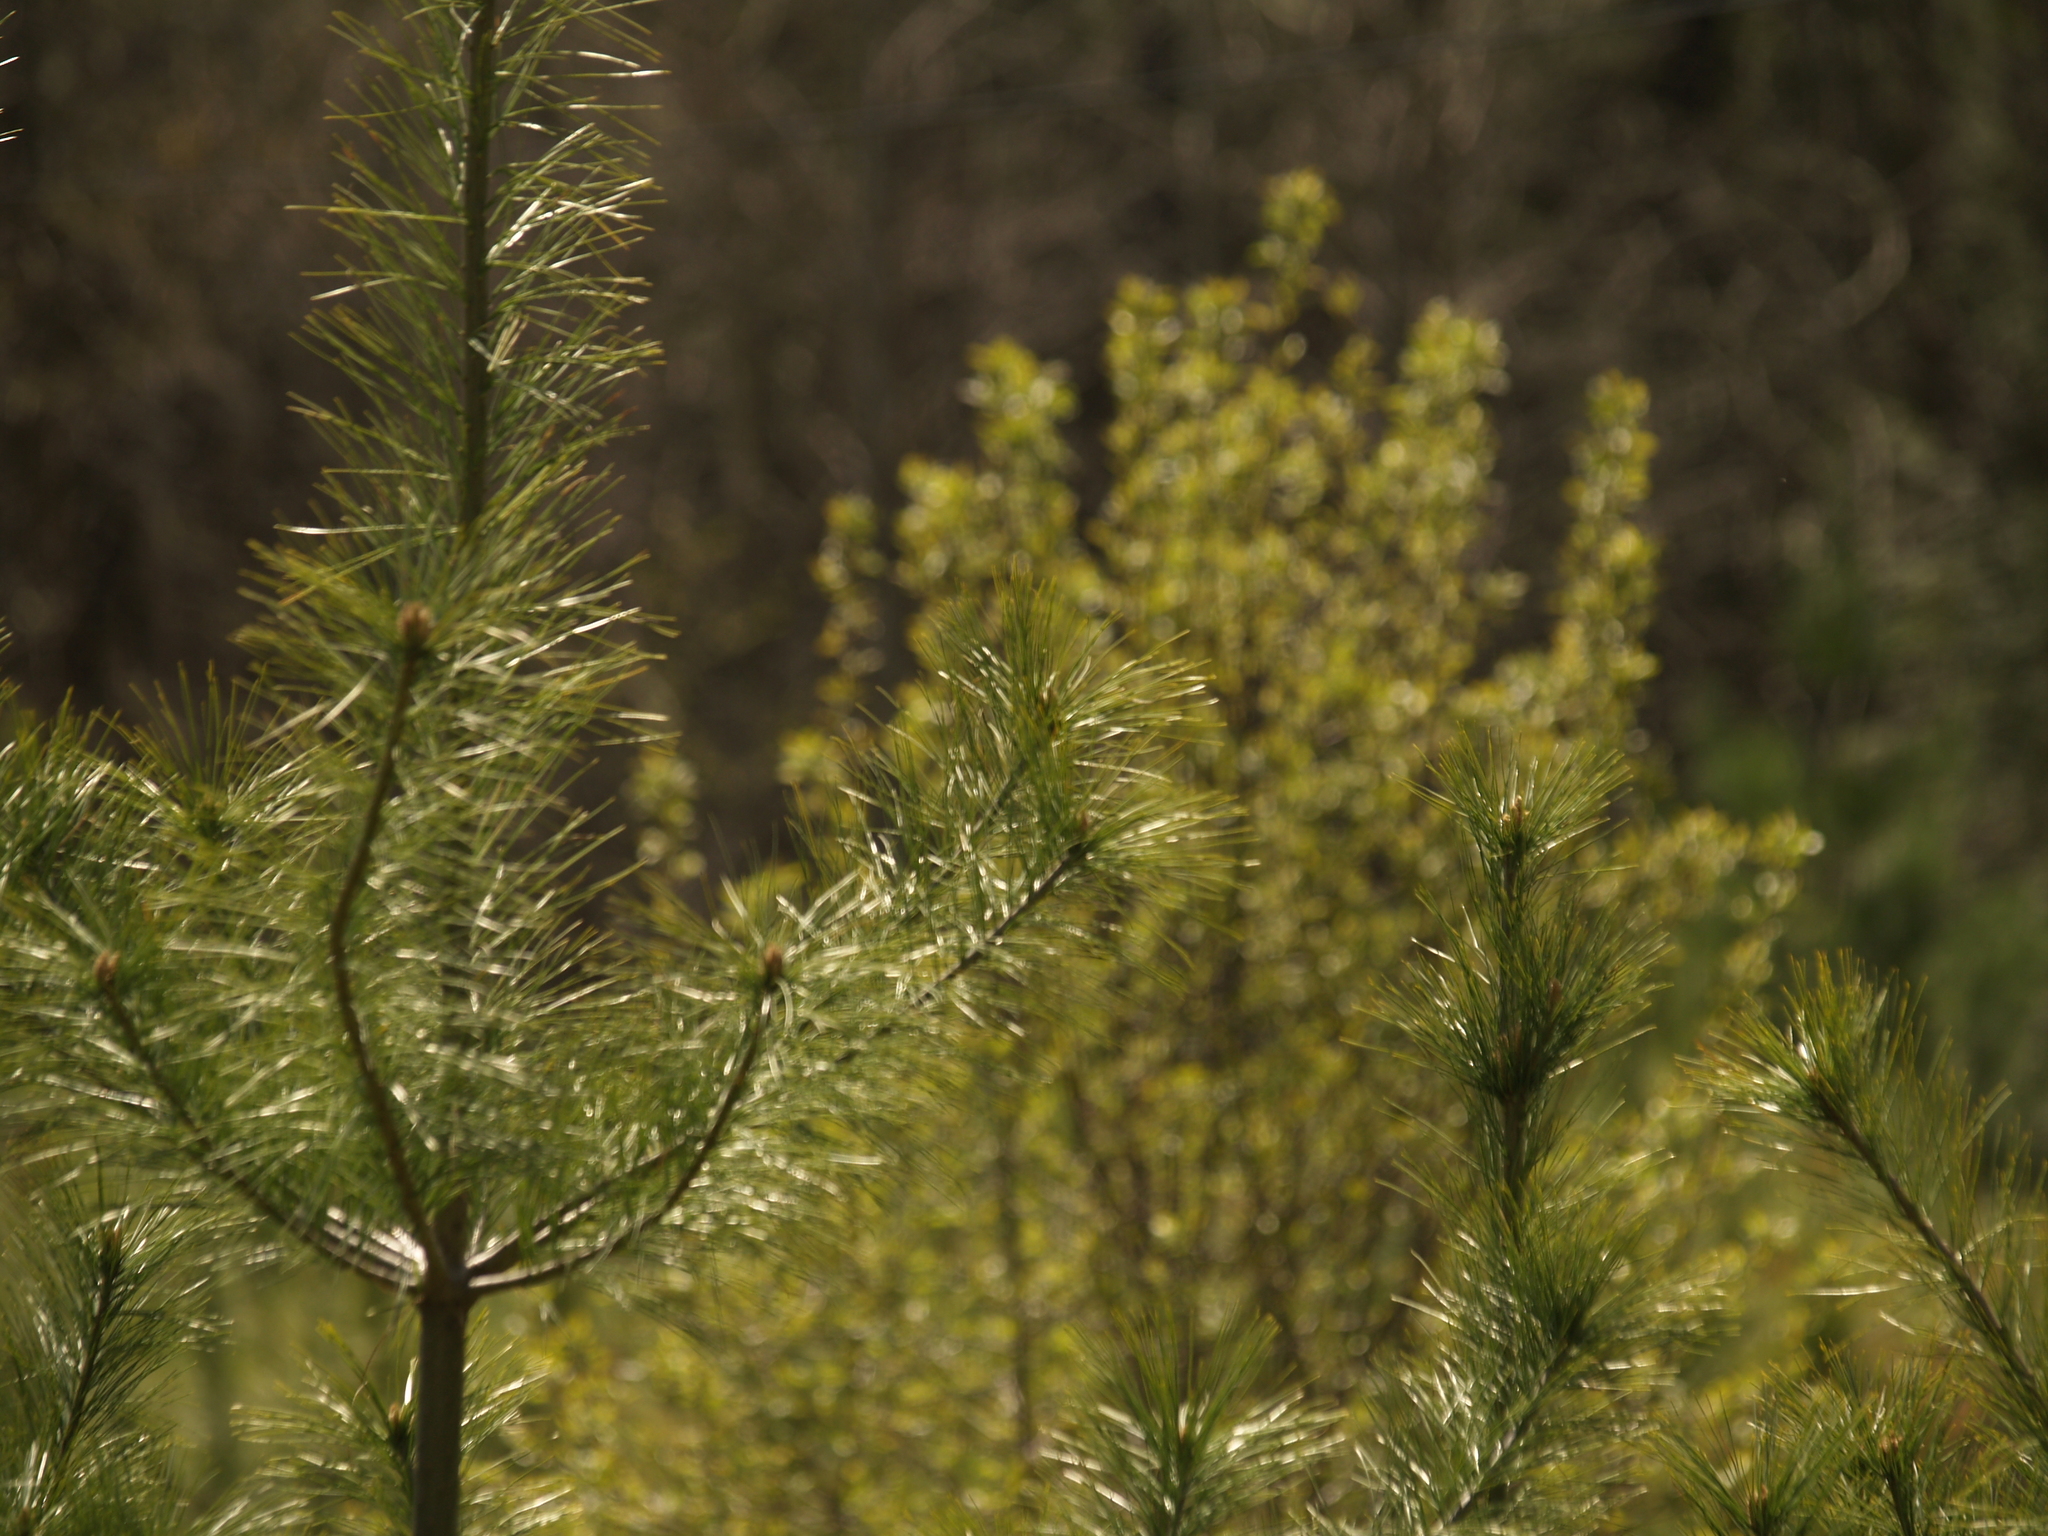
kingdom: Plantae
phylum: Tracheophyta
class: Pinopsida
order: Pinales
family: Pinaceae
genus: Pinus
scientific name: Pinus strobus
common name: Weymouth pine
